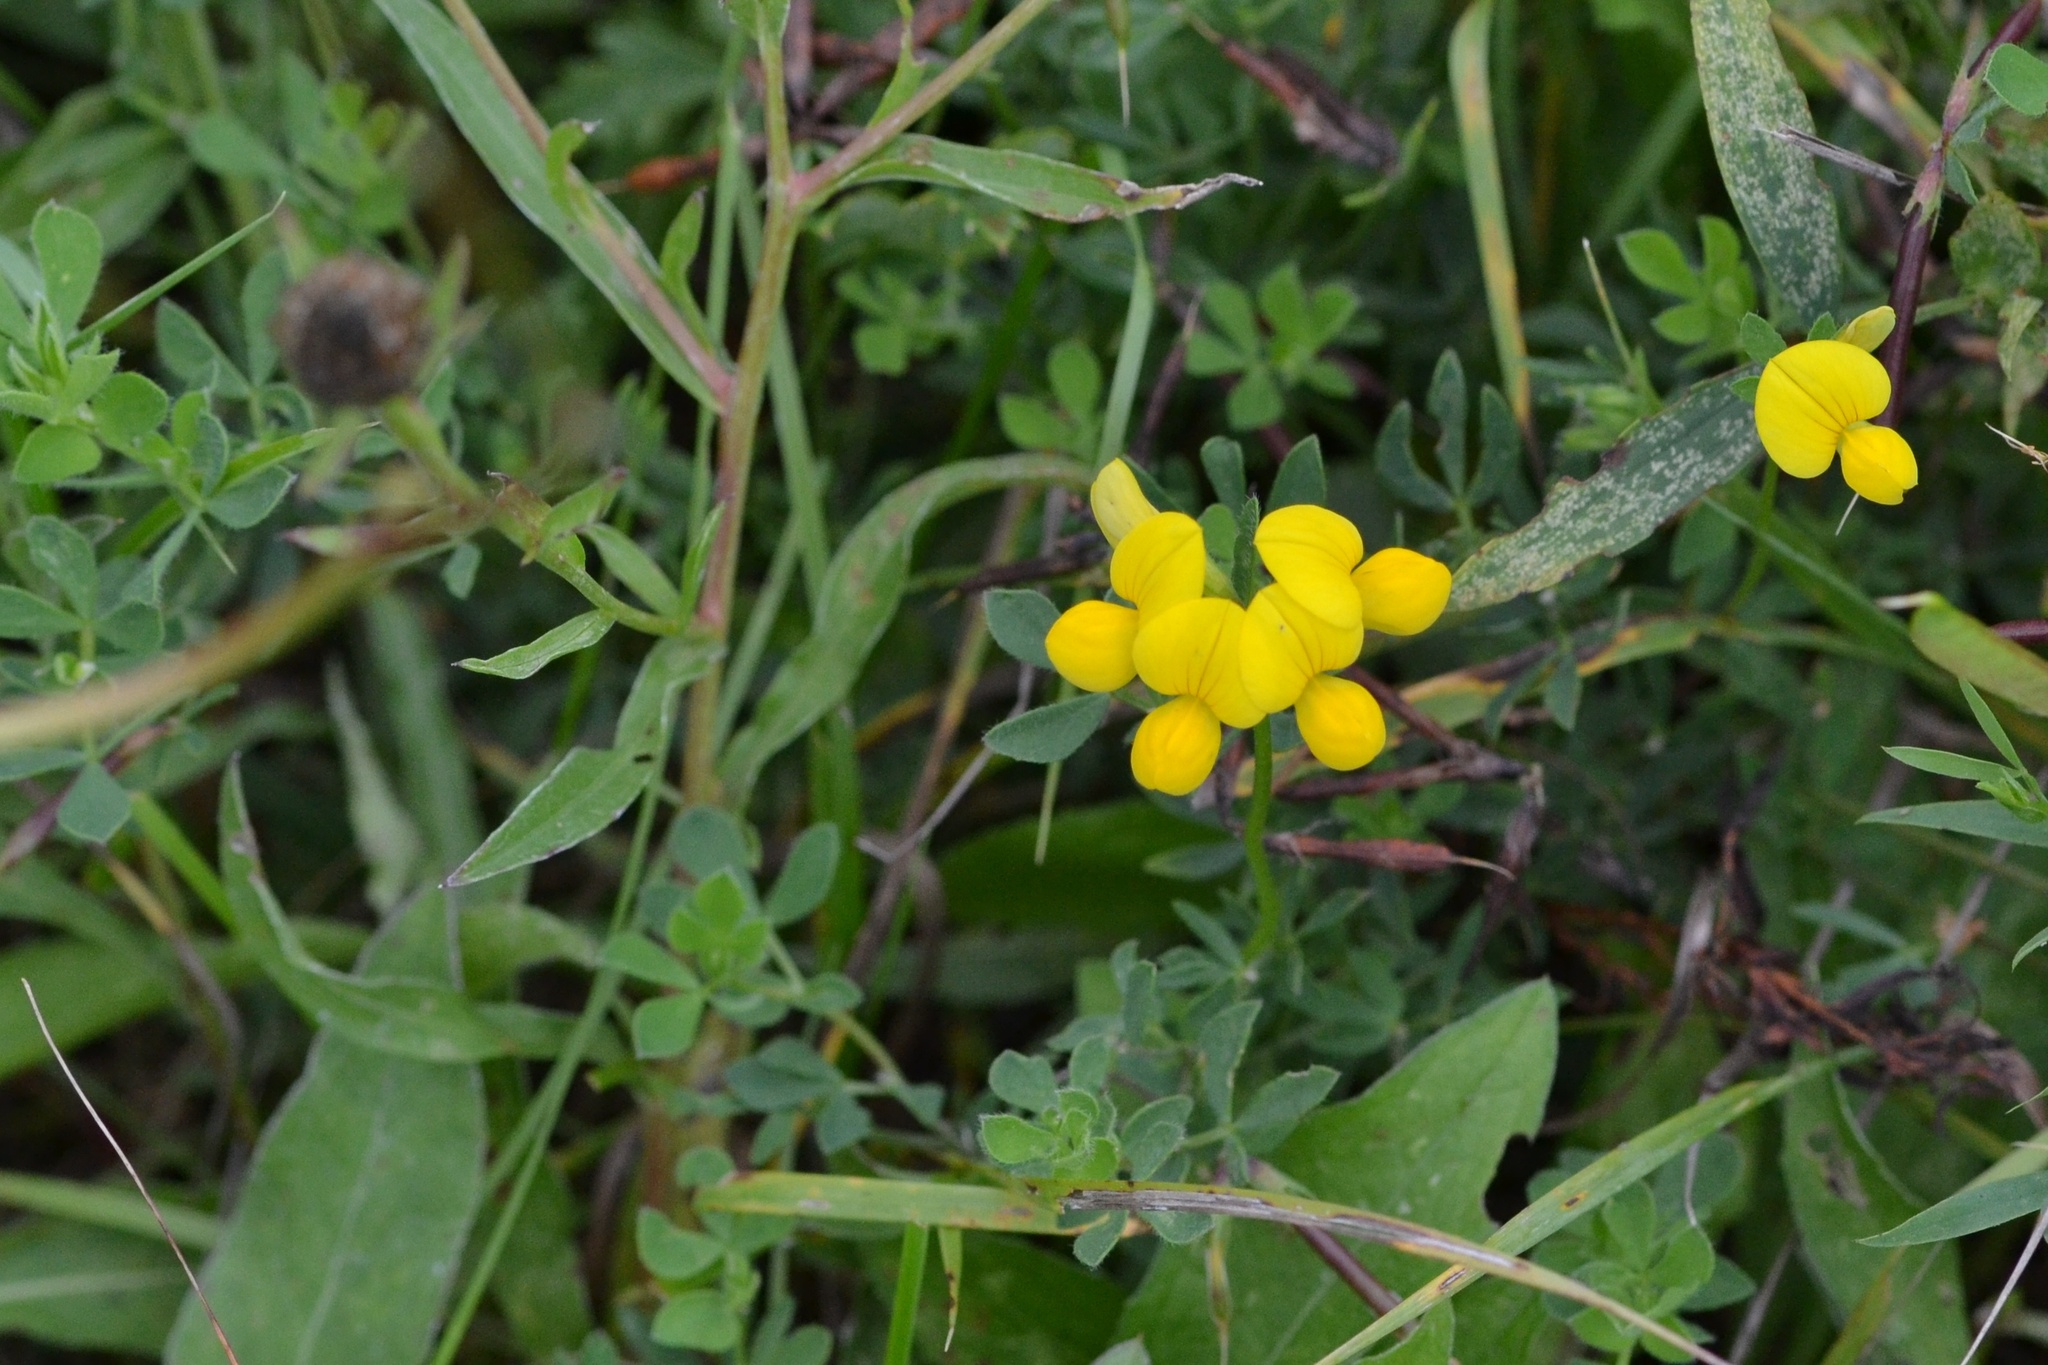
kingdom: Plantae
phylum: Tracheophyta
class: Magnoliopsida
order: Fabales
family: Fabaceae
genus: Lotus
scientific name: Lotus corniculatus
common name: Common bird's-foot-trefoil
